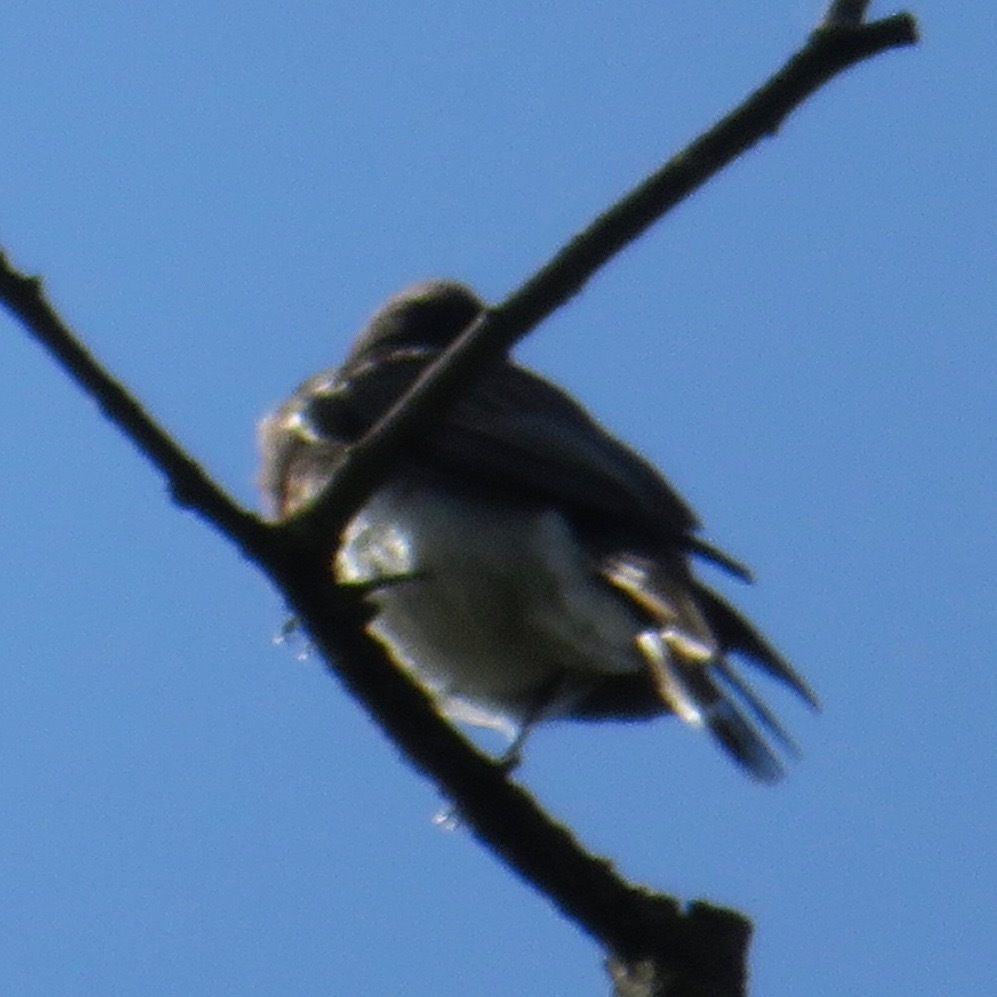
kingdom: Animalia
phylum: Chordata
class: Aves
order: Passeriformes
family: Tyrannidae
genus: Sayornis
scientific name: Sayornis nigricans
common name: Black phoebe
